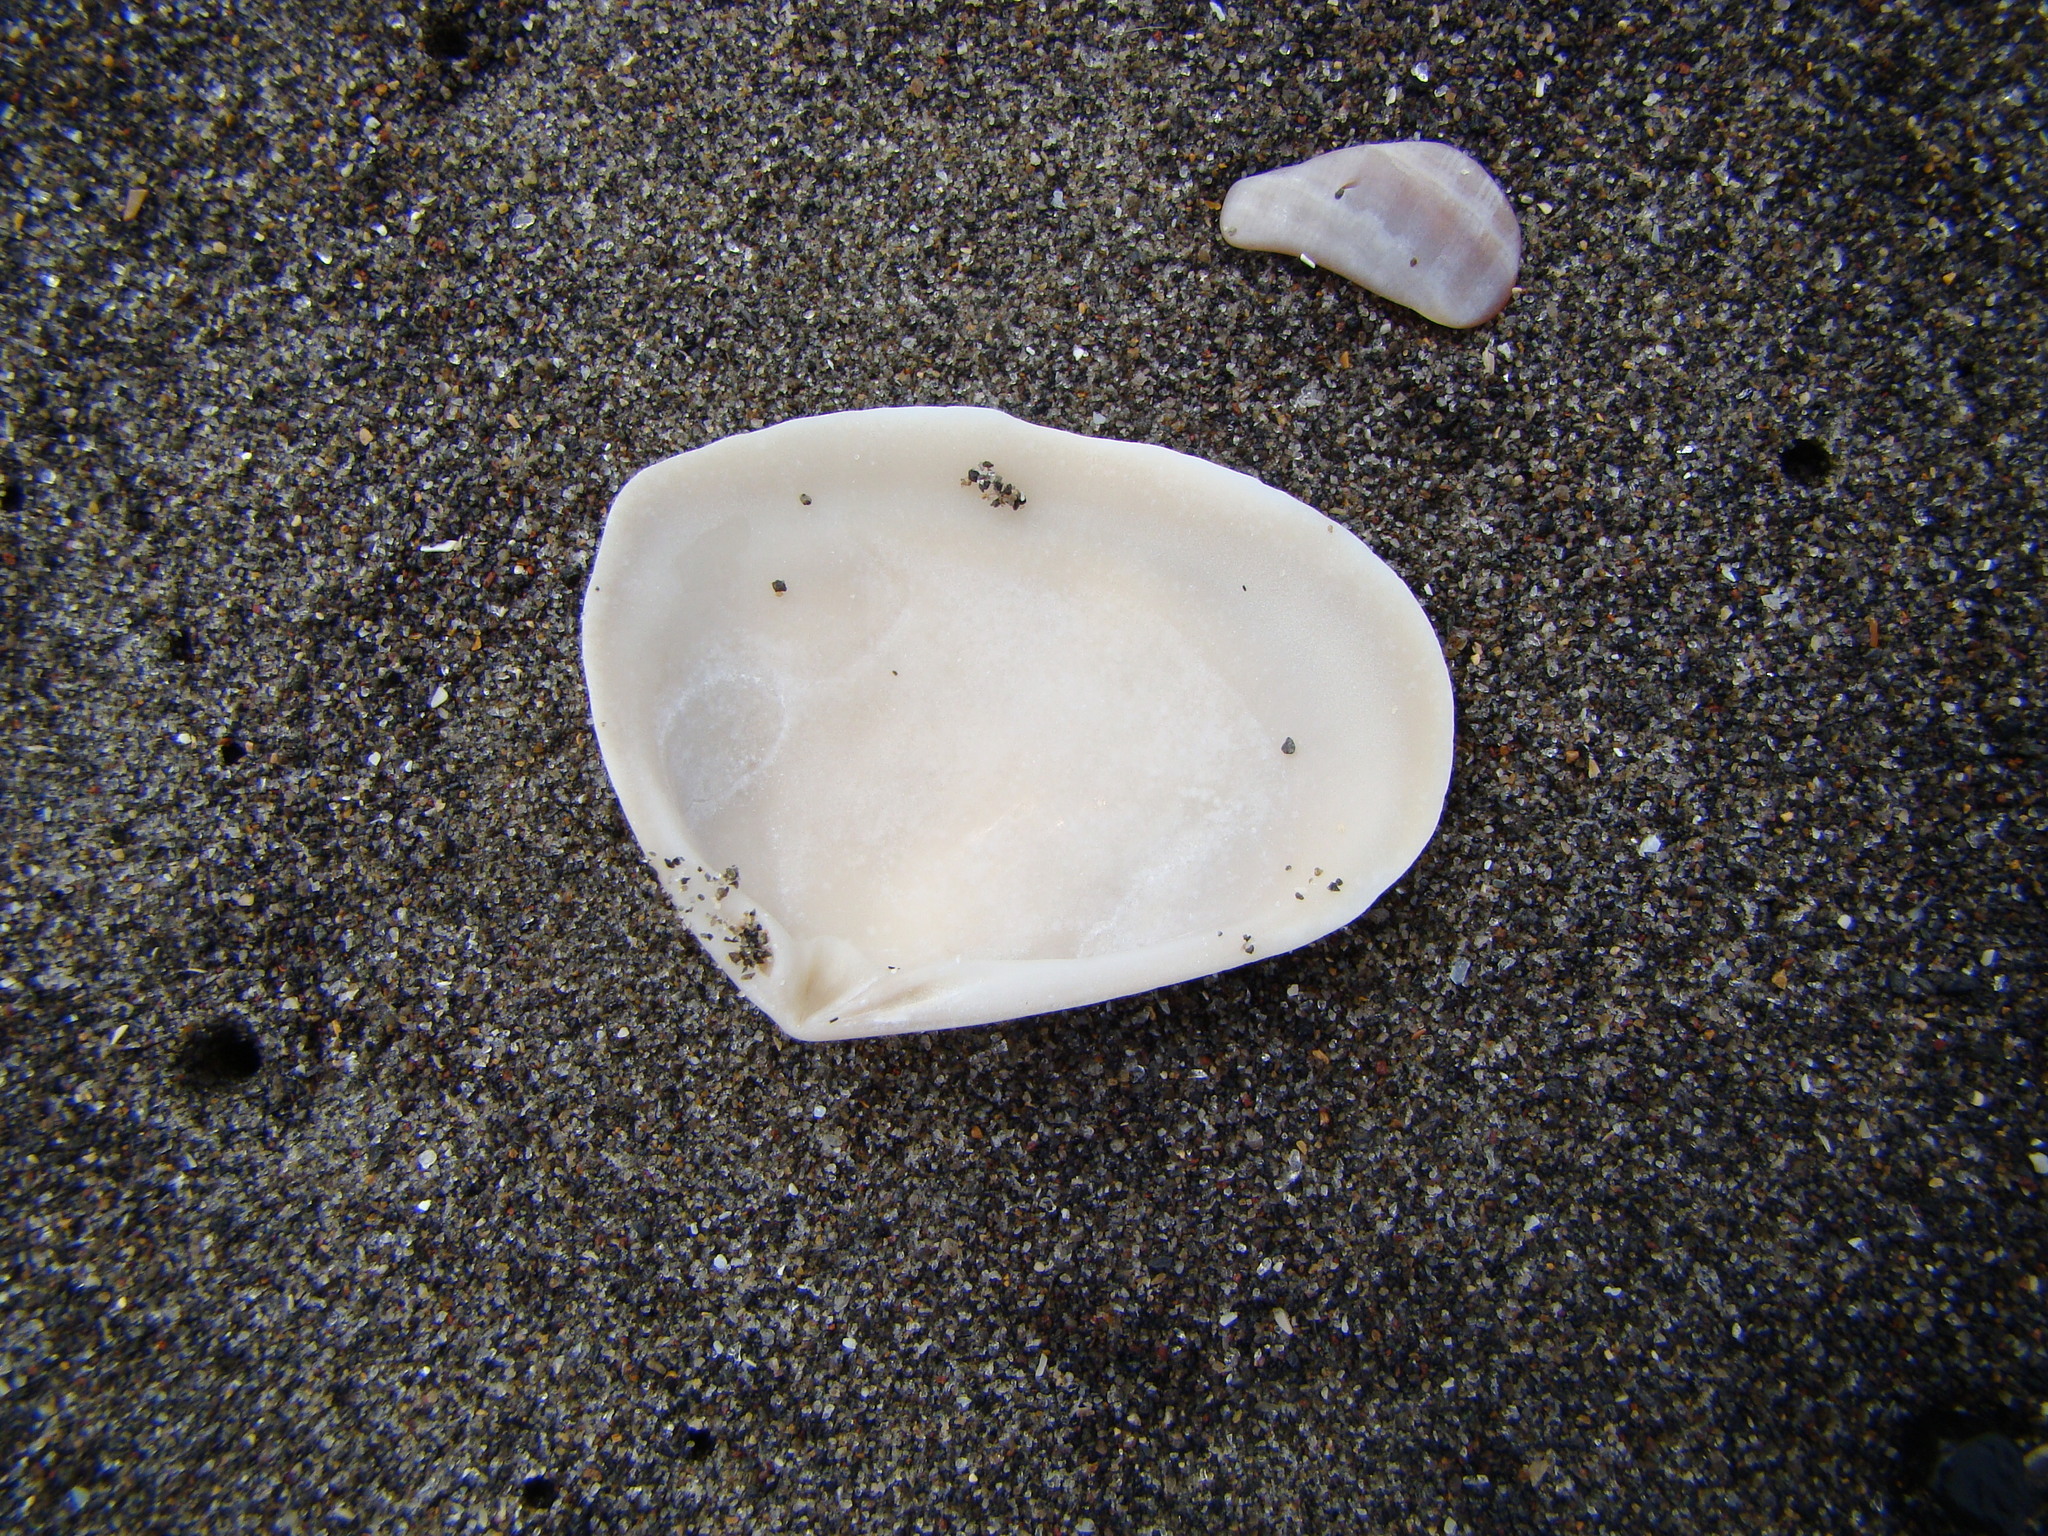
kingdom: Animalia
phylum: Mollusca
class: Bivalvia
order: Venerida
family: Mesodesmatidae
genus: Paphies
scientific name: Paphies donacina
